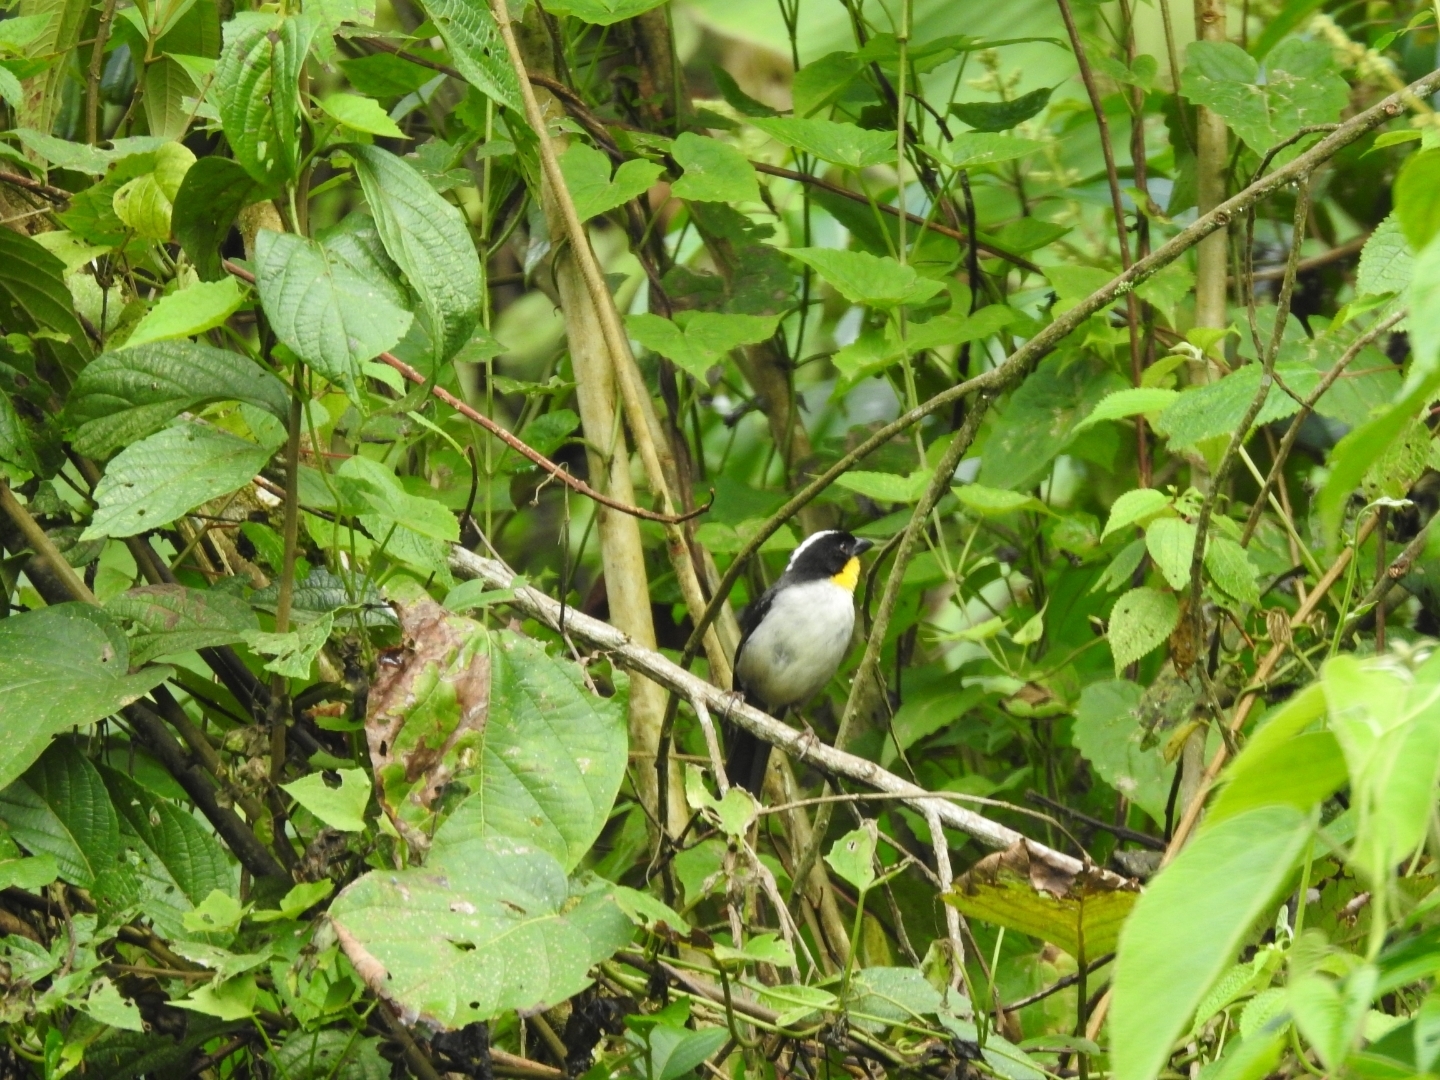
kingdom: Animalia
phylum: Chordata
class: Aves
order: Passeriformes
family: Passerellidae
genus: Atlapetes
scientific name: Atlapetes albinucha
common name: White-naped brush-finch
